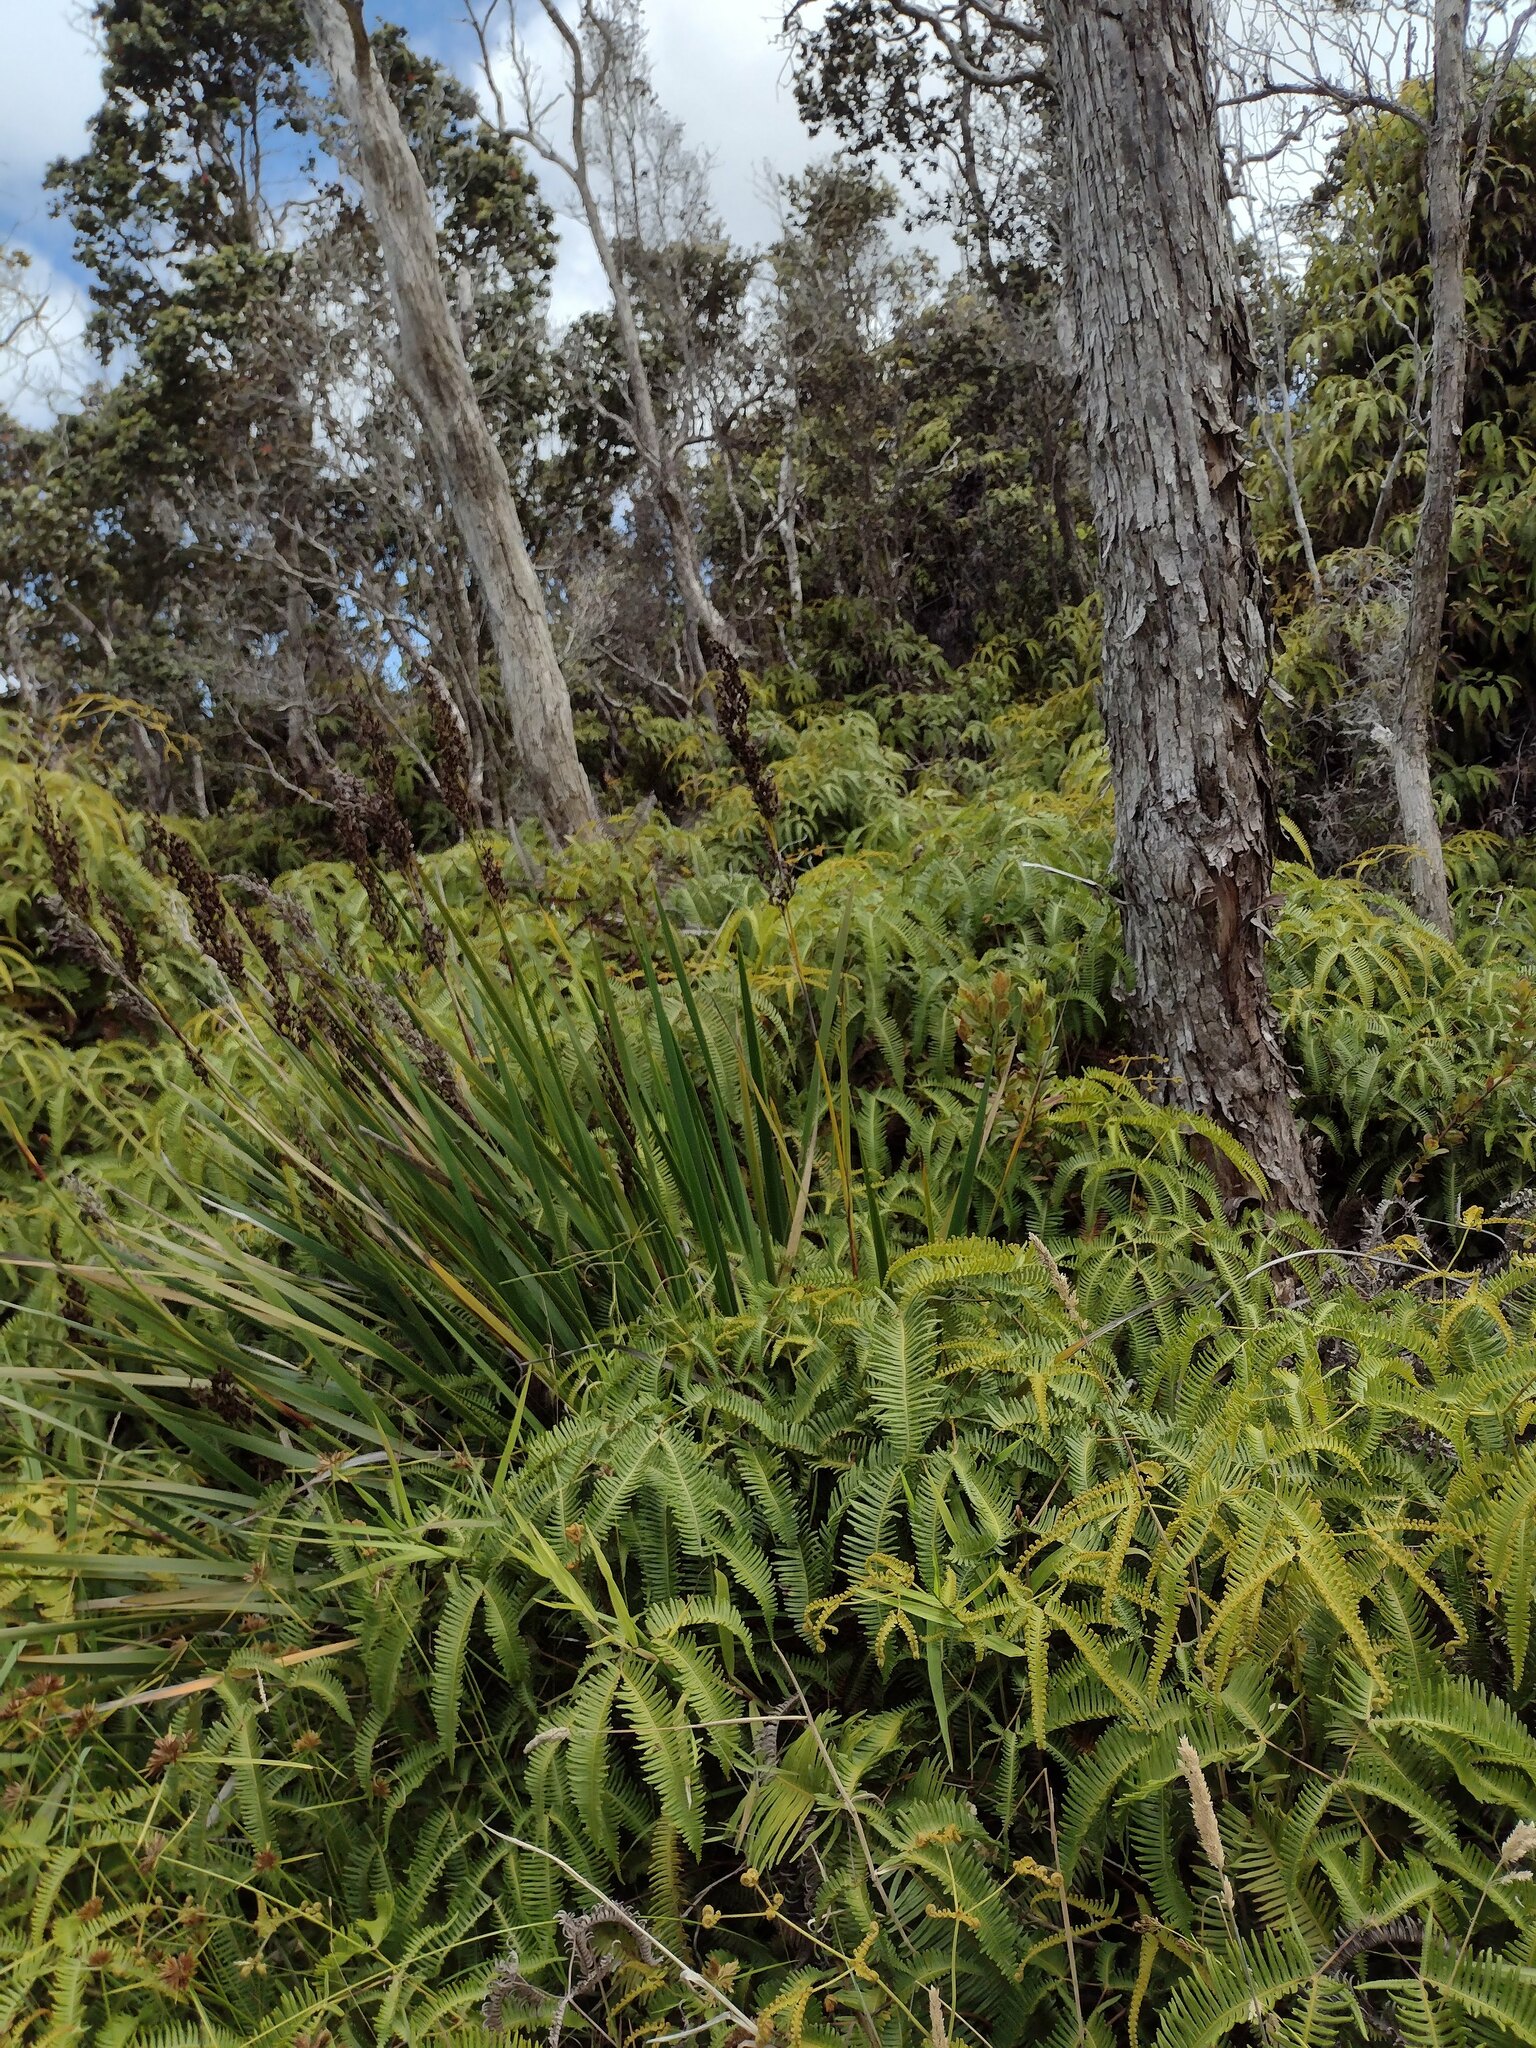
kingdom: Plantae
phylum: Tracheophyta
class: Liliopsida
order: Poales
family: Cyperaceae
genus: Machaerina
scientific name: Machaerina angustifolia
